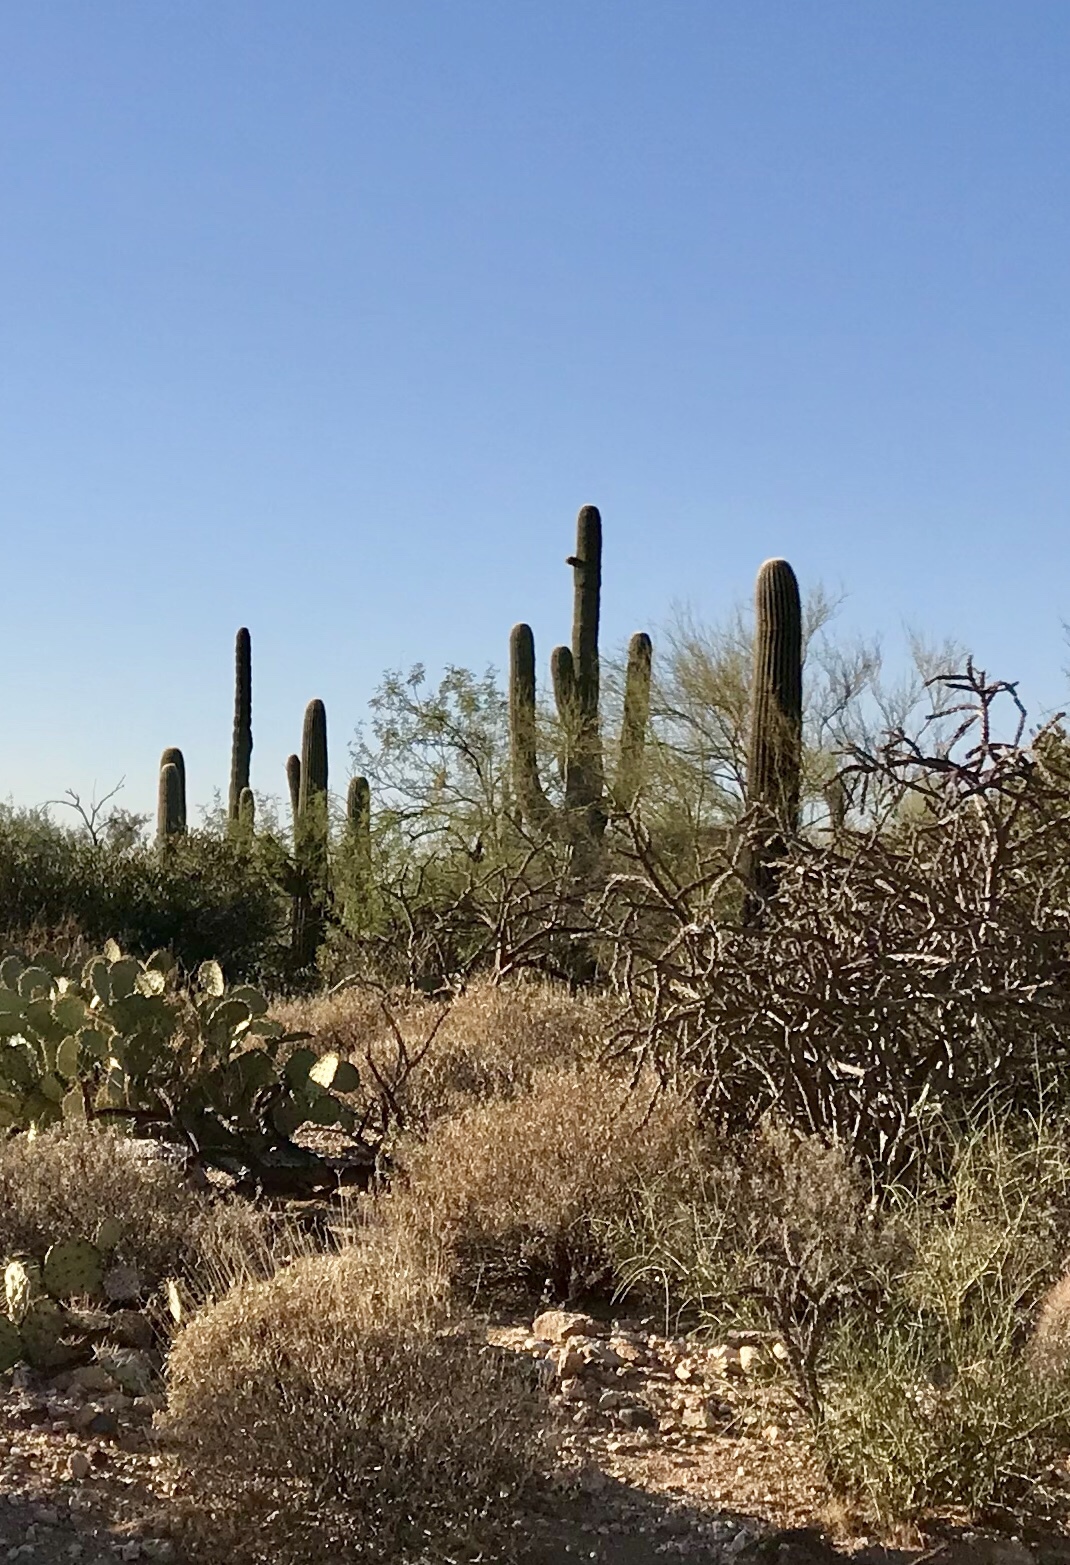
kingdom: Plantae
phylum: Tracheophyta
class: Magnoliopsida
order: Caryophyllales
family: Cactaceae
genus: Carnegiea
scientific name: Carnegiea gigantea
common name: Saguaro
